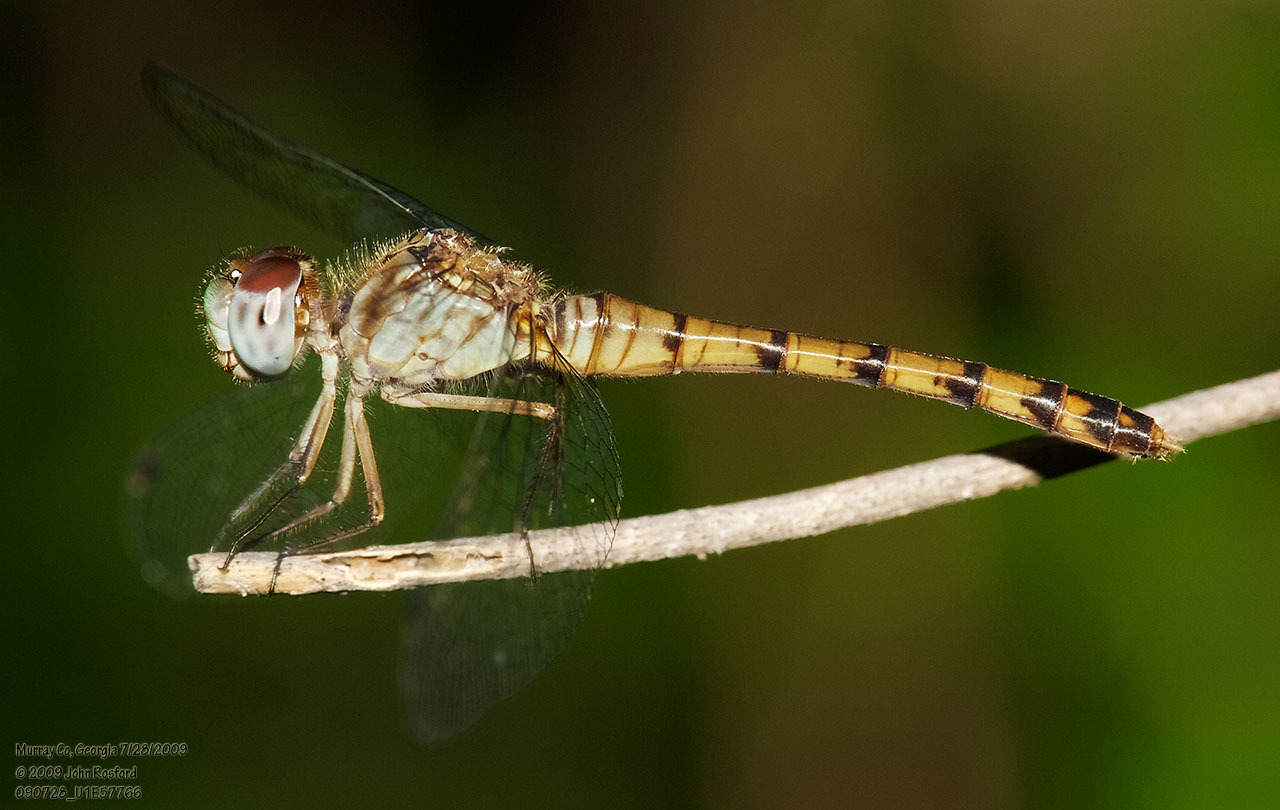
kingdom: Animalia
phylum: Arthropoda
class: Insecta
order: Odonata
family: Libellulidae
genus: Sympetrum
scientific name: Sympetrum ambiguum
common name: Blue-faced meadowhawk
